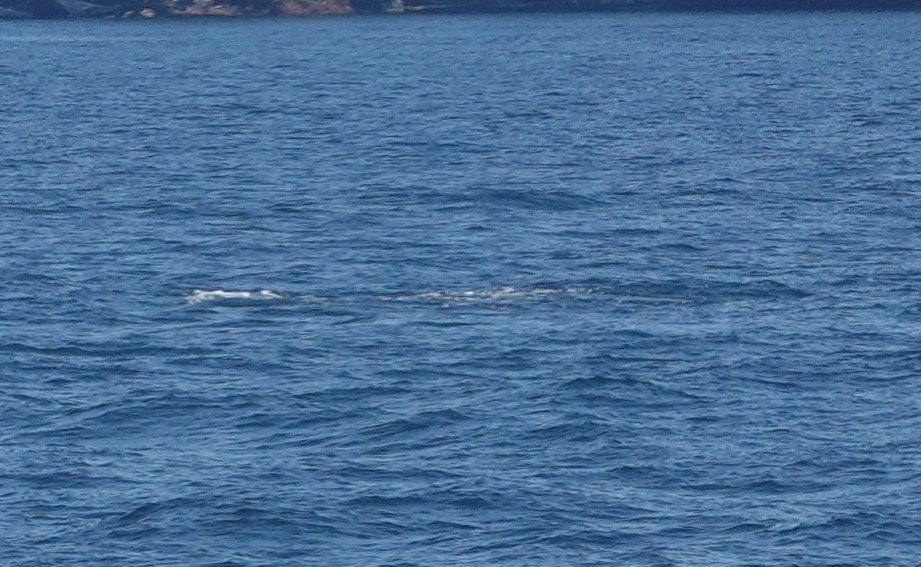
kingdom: Animalia
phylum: Chordata
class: Mammalia
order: Cetacea
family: Delphinidae
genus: Orcinus
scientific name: Orcinus orca
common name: Killer whale
